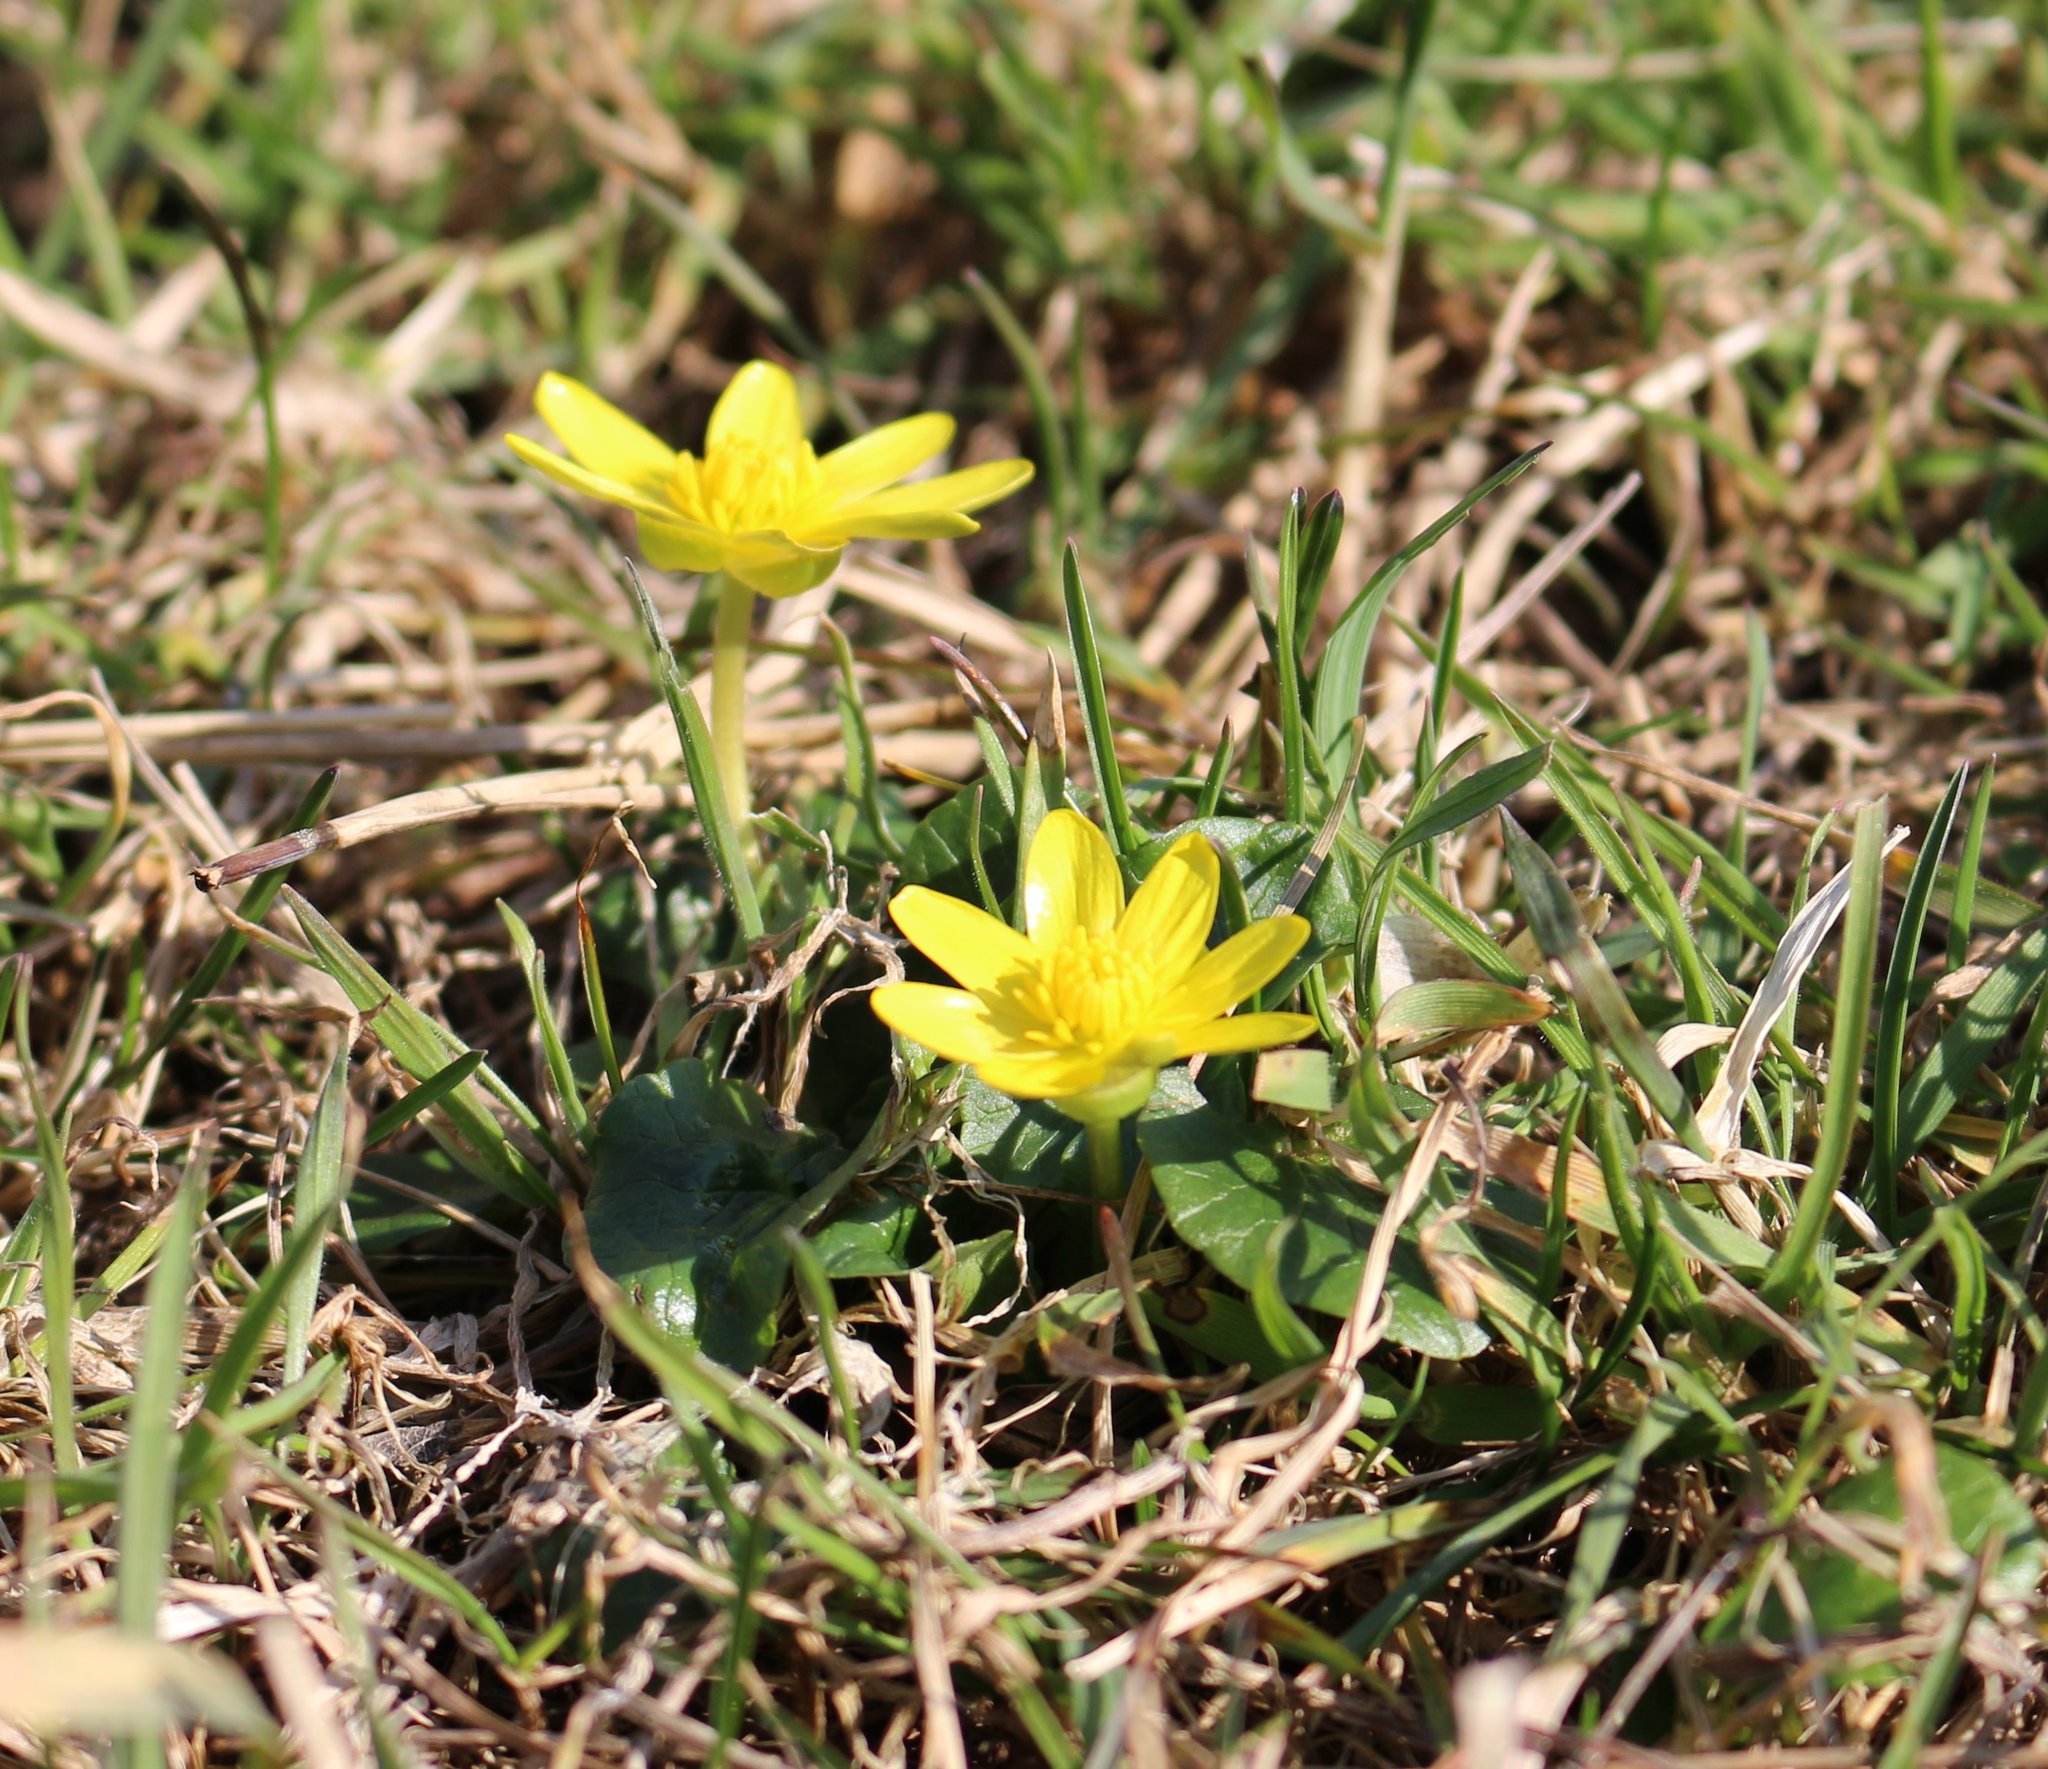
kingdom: Plantae
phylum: Tracheophyta
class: Magnoliopsida
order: Ranunculales
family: Ranunculaceae
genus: Ficaria
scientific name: Ficaria verna
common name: Lesser celandine
